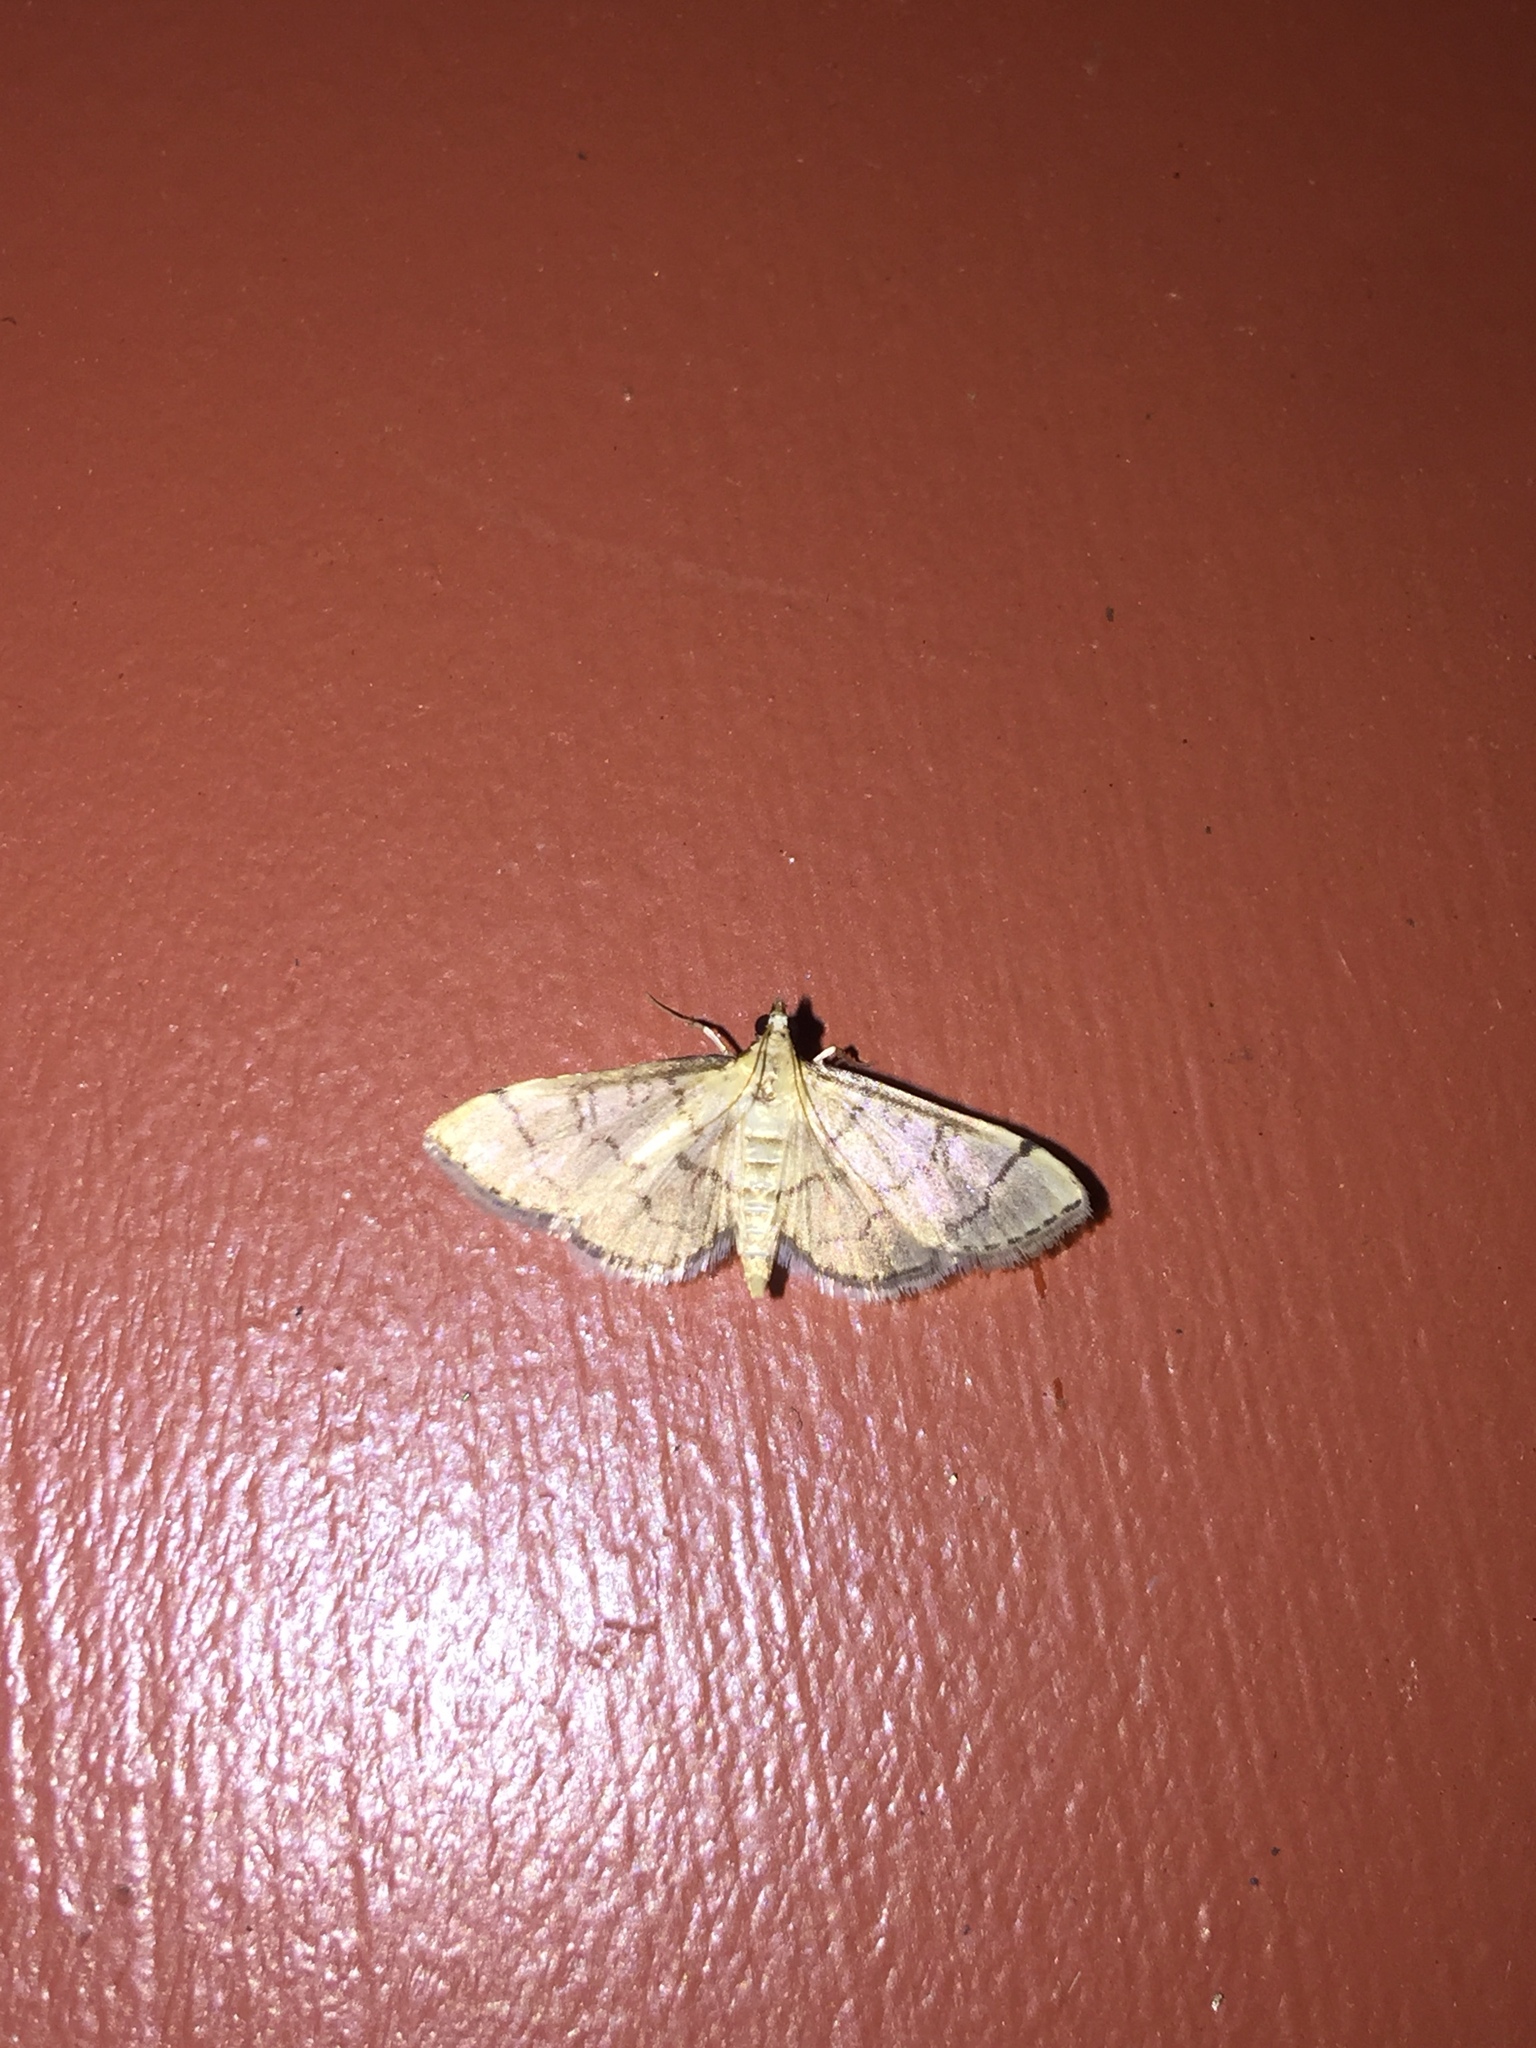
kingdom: Animalia
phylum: Arthropoda
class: Insecta
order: Lepidoptera
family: Crambidae
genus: Lamprosema
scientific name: Lamprosema Blepharomastix ranalis
